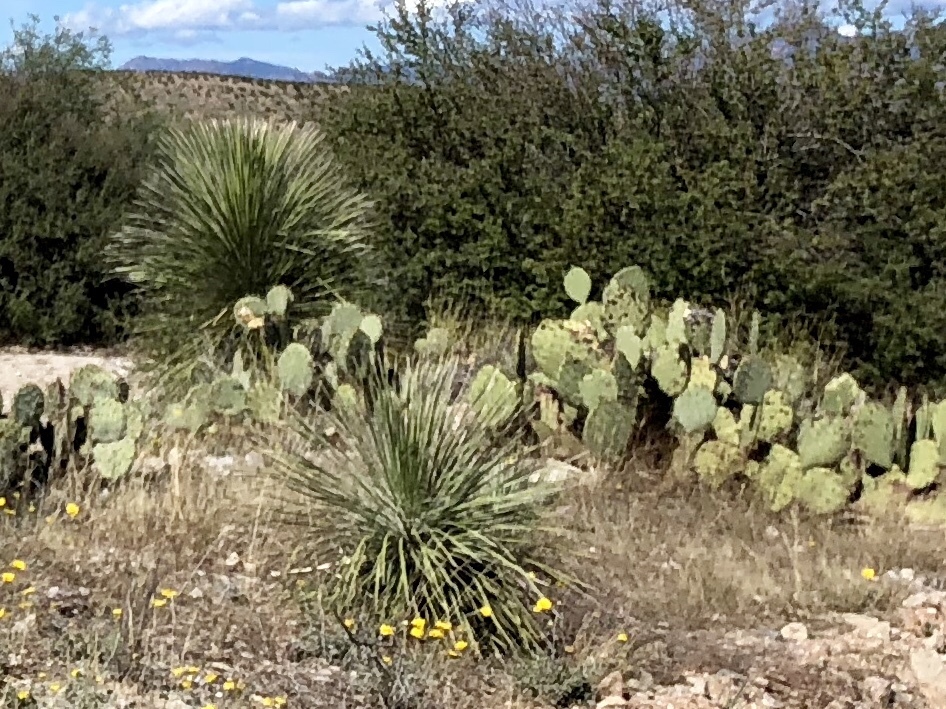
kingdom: Plantae
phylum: Tracheophyta
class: Liliopsida
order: Asparagales
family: Asparagaceae
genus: Yucca
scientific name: Yucca elata
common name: Palmella
